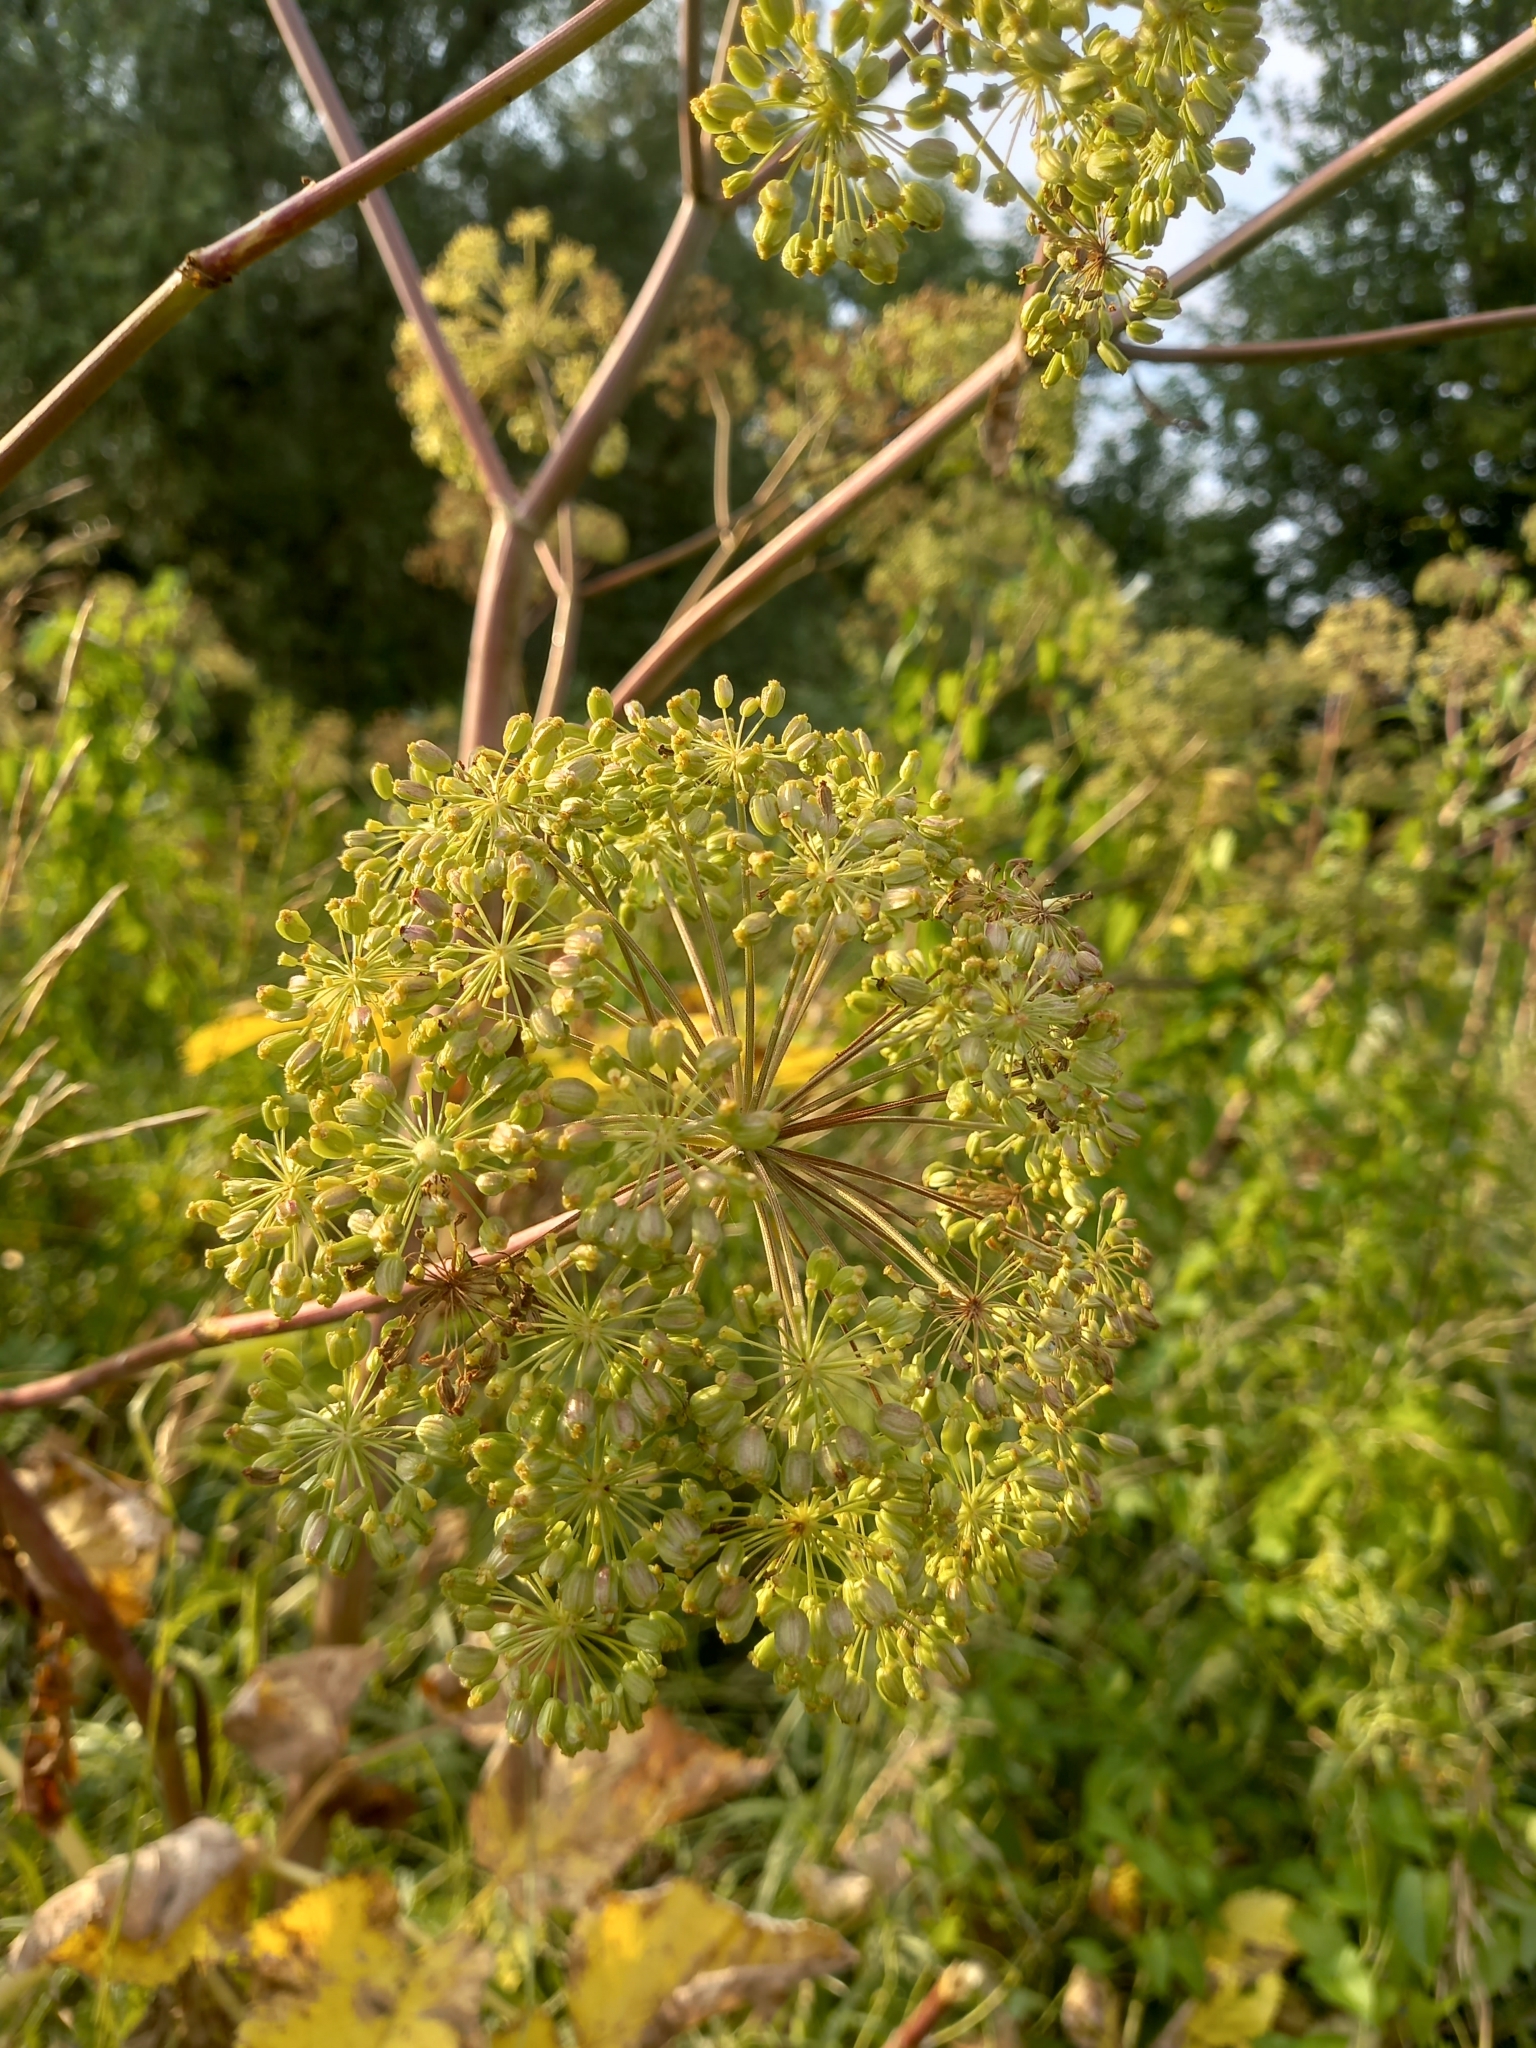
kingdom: Plantae
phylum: Tracheophyta
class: Magnoliopsida
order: Apiales
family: Apiaceae
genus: Angelica
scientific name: Angelica archangelica
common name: Garden angelica
